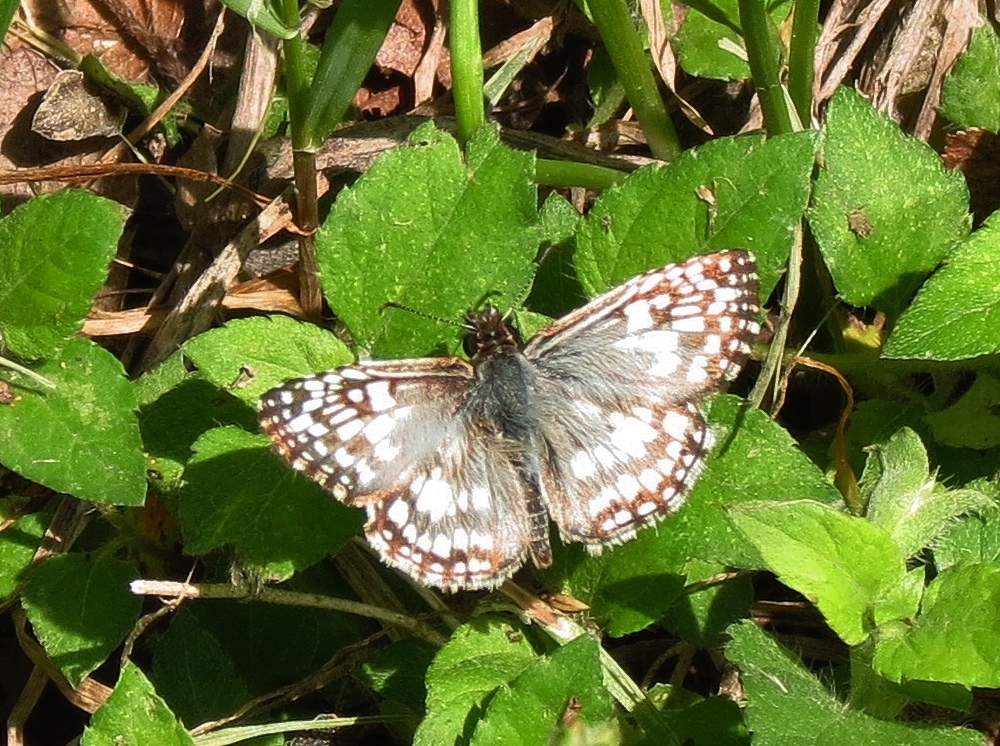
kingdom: Animalia
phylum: Arthropoda
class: Insecta
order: Lepidoptera
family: Hesperiidae
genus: Pyrgus
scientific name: Pyrgus oileus
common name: Tropical checkered-skipper
